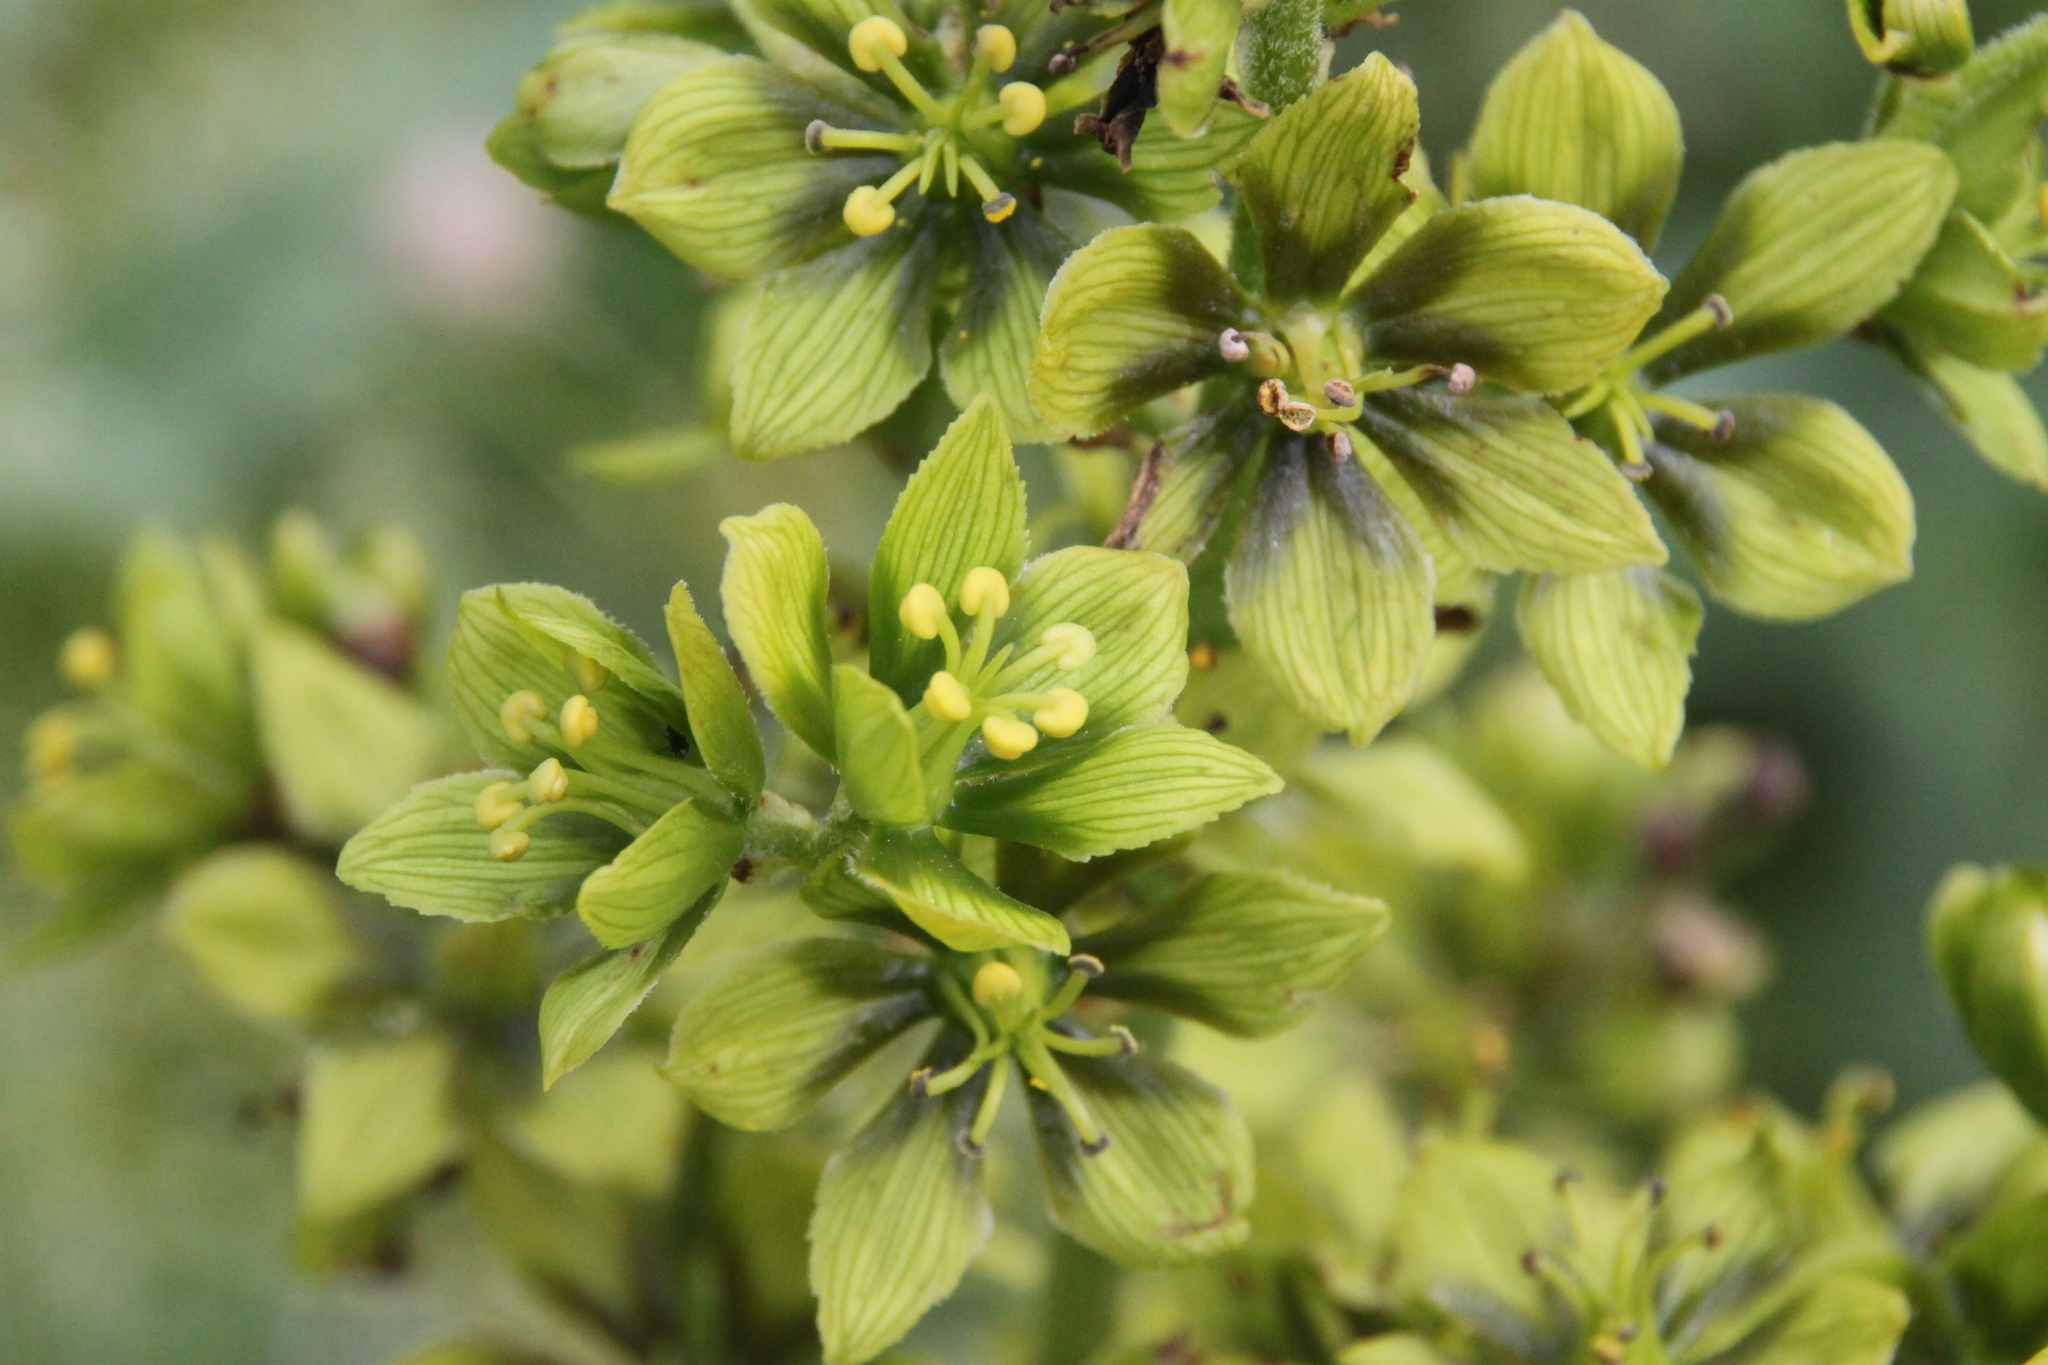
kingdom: Plantae
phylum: Tracheophyta
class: Liliopsida
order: Liliales
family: Melanthiaceae
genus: Veratrum
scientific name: Veratrum lobelianum
